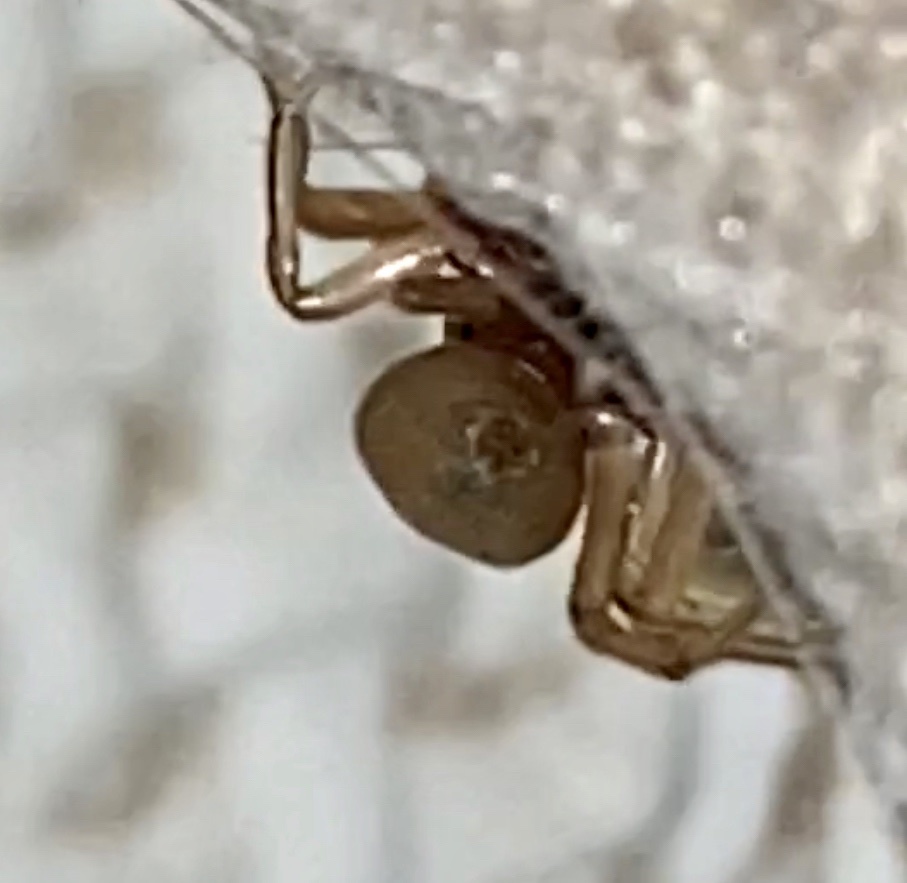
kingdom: Animalia
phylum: Arthropoda
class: Arachnida
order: Araneae
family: Trachelidae
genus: Trachelas
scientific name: Trachelas tranquillus
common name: Broad-faced sac spider
